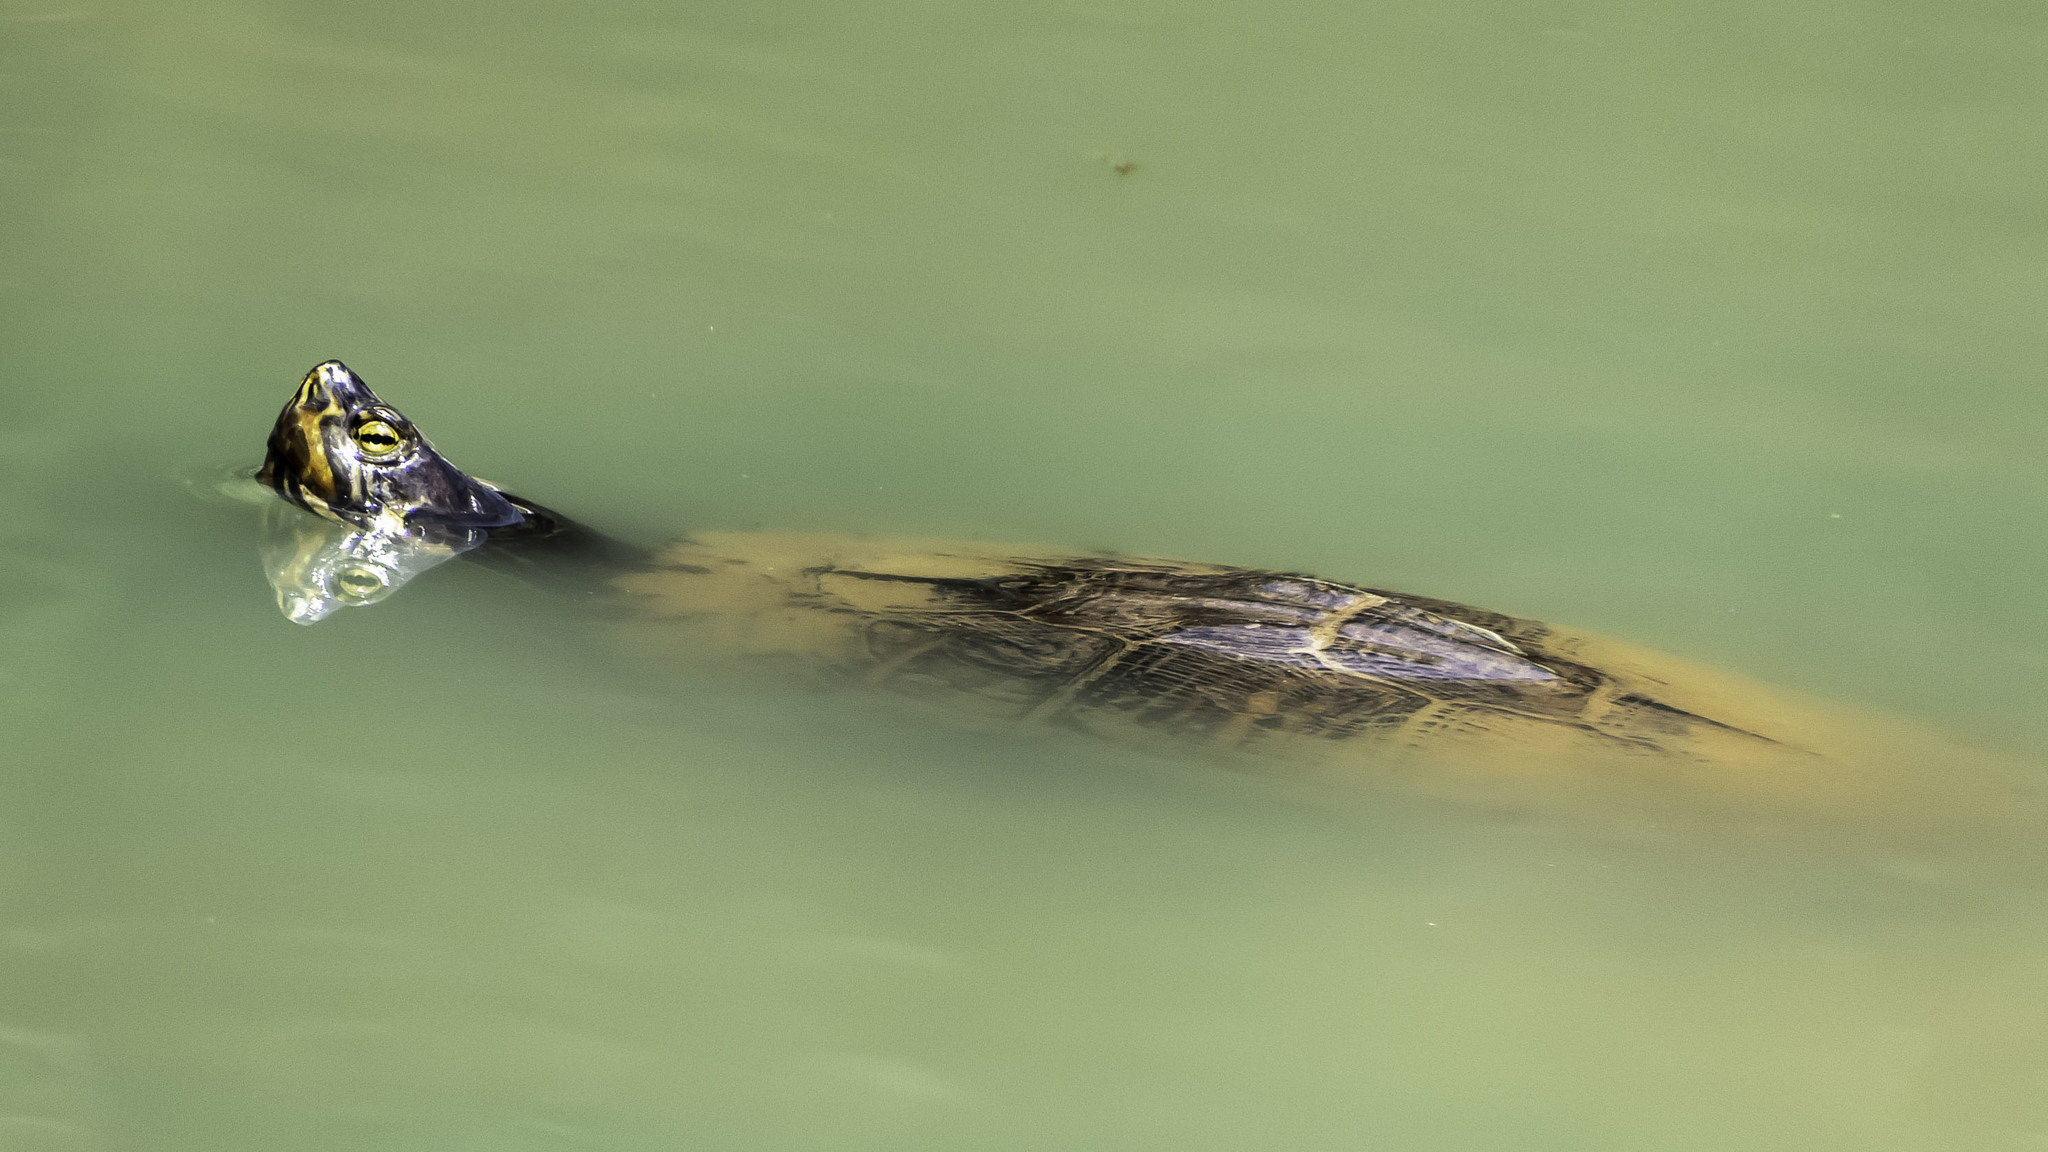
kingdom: Animalia
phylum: Chordata
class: Testudines
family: Emydidae
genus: Trachemys
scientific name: Trachemys scripta
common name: Slider
